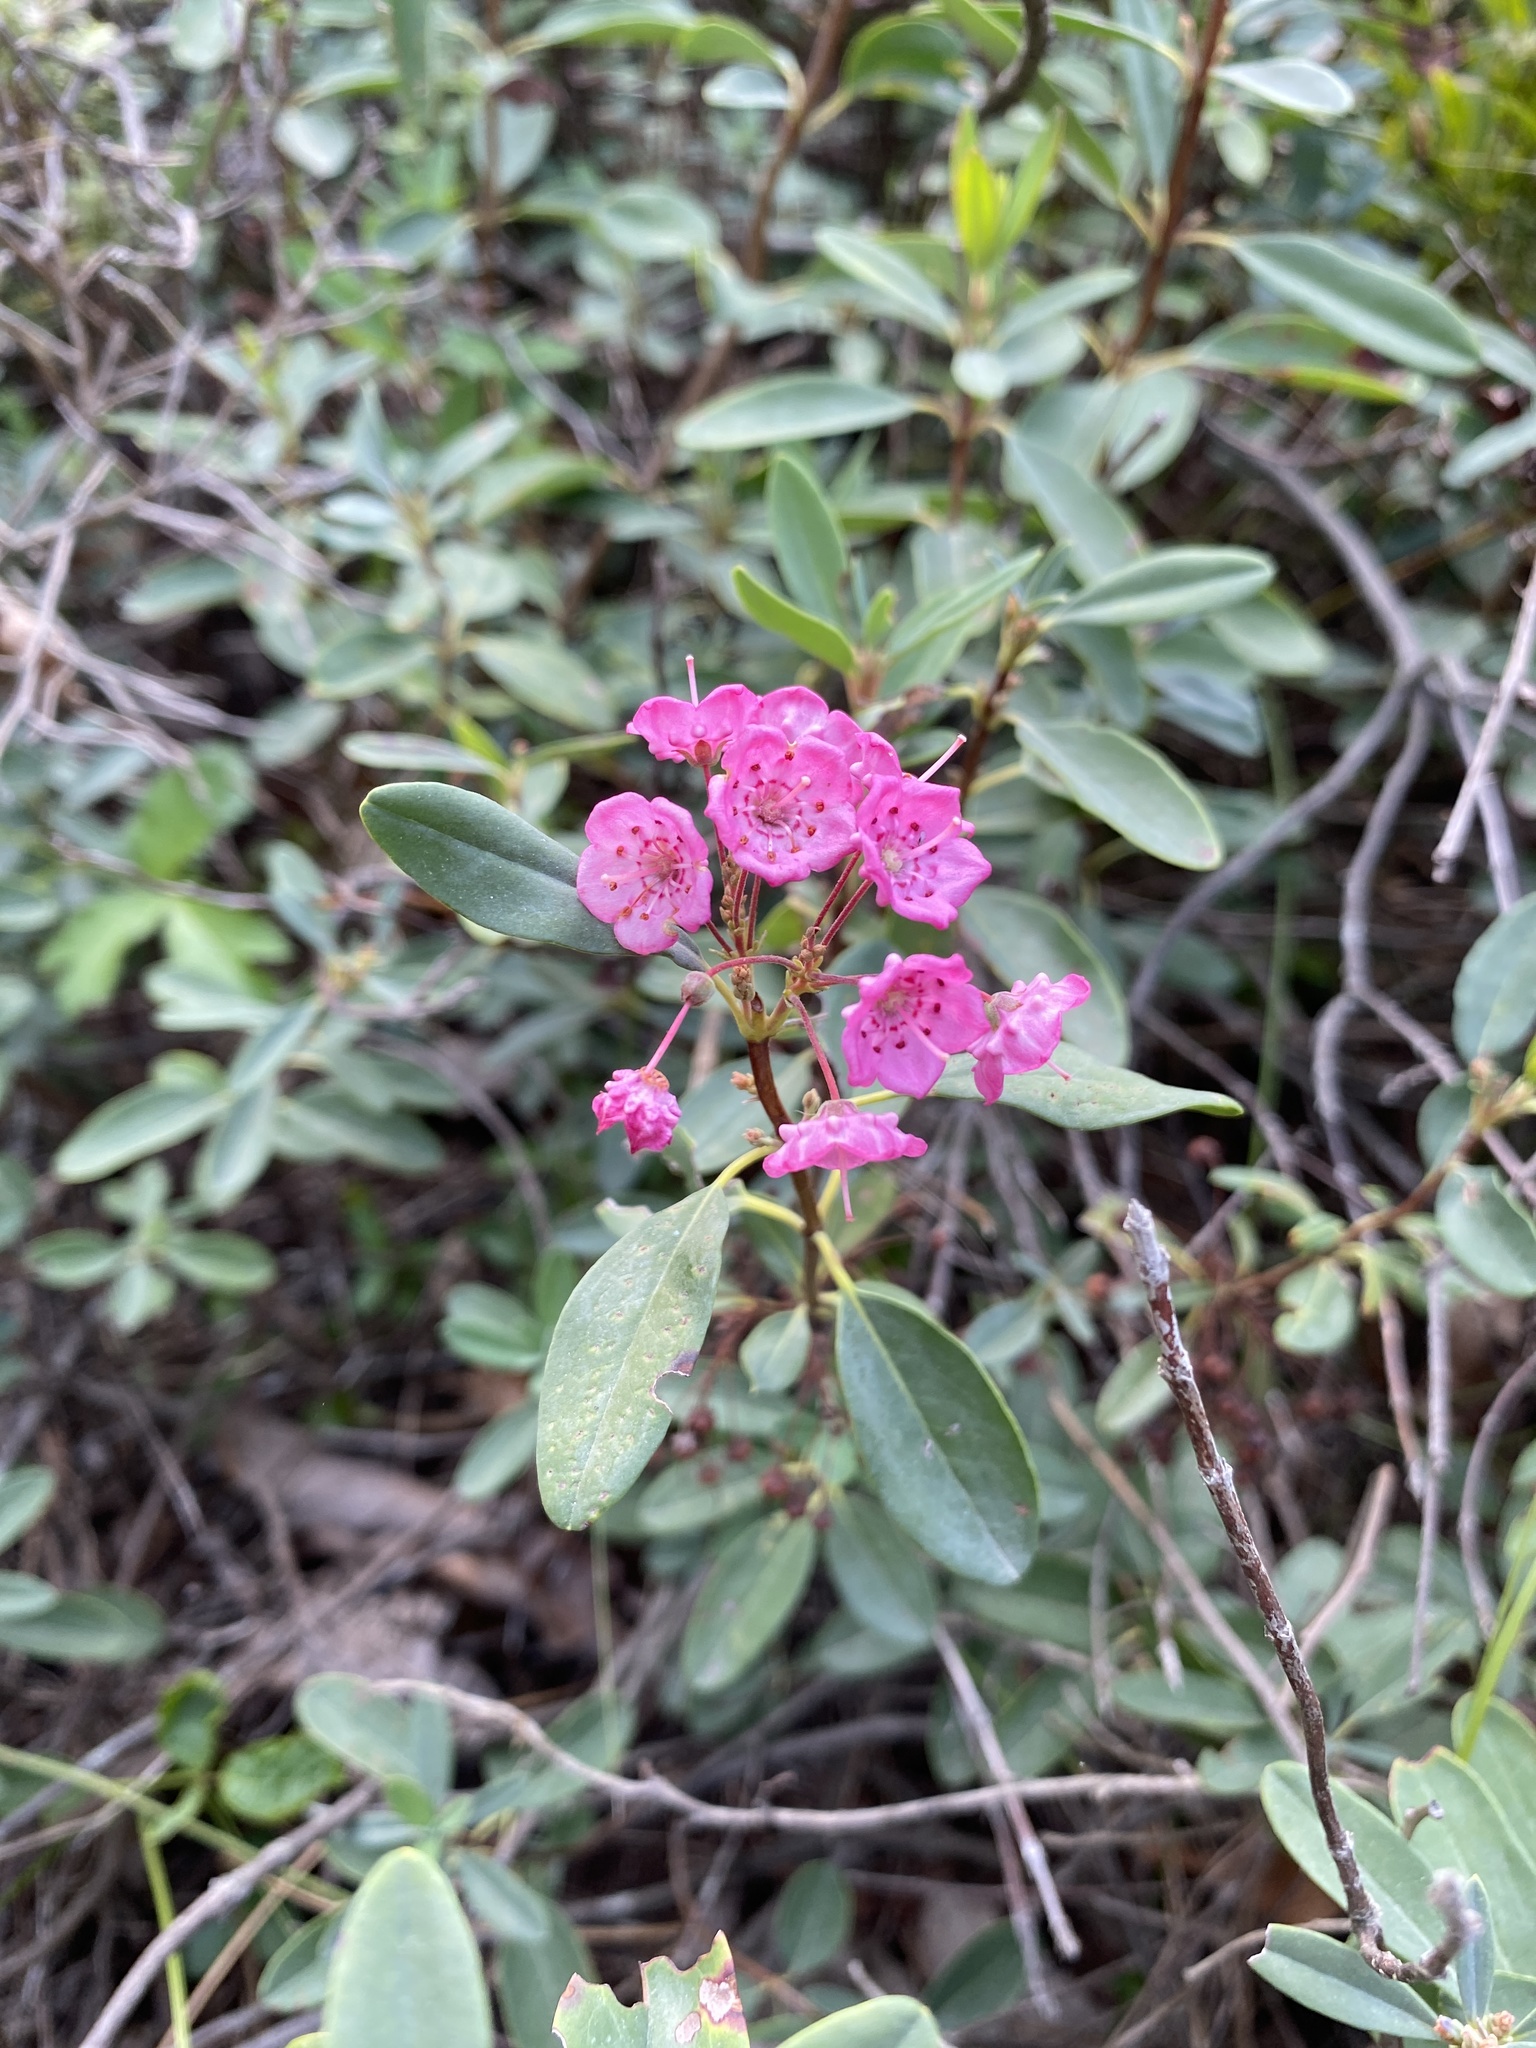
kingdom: Plantae
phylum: Tracheophyta
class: Magnoliopsida
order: Ericales
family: Ericaceae
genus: Kalmia
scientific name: Kalmia angustifolia
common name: Sheep-laurel
